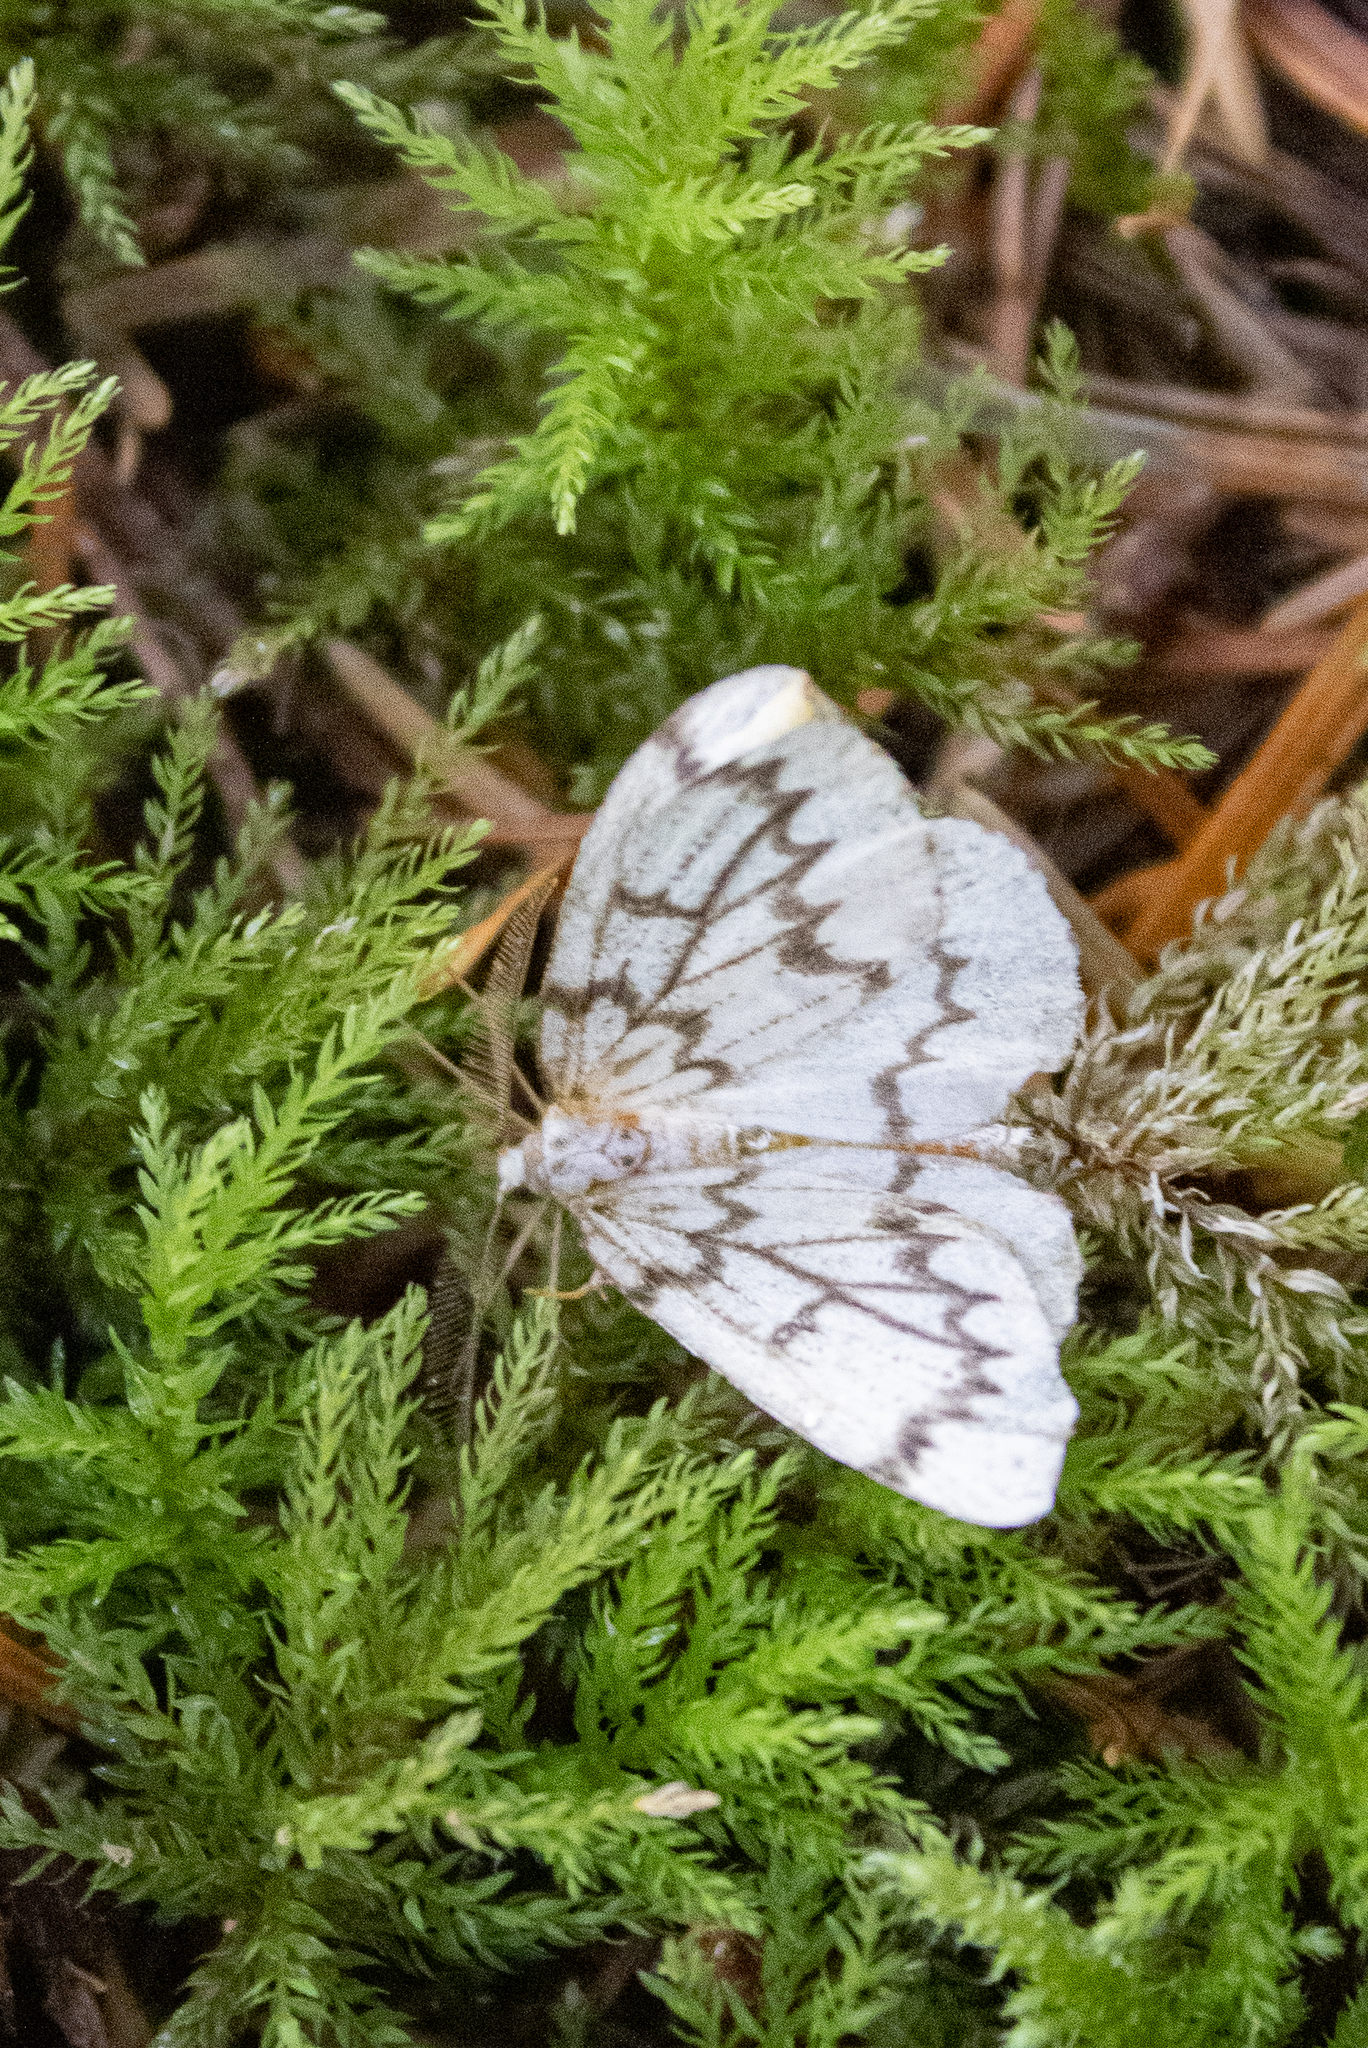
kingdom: Animalia
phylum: Arthropoda
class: Insecta
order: Lepidoptera
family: Geometridae
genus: Nepytia
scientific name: Nepytia phantasmaria
